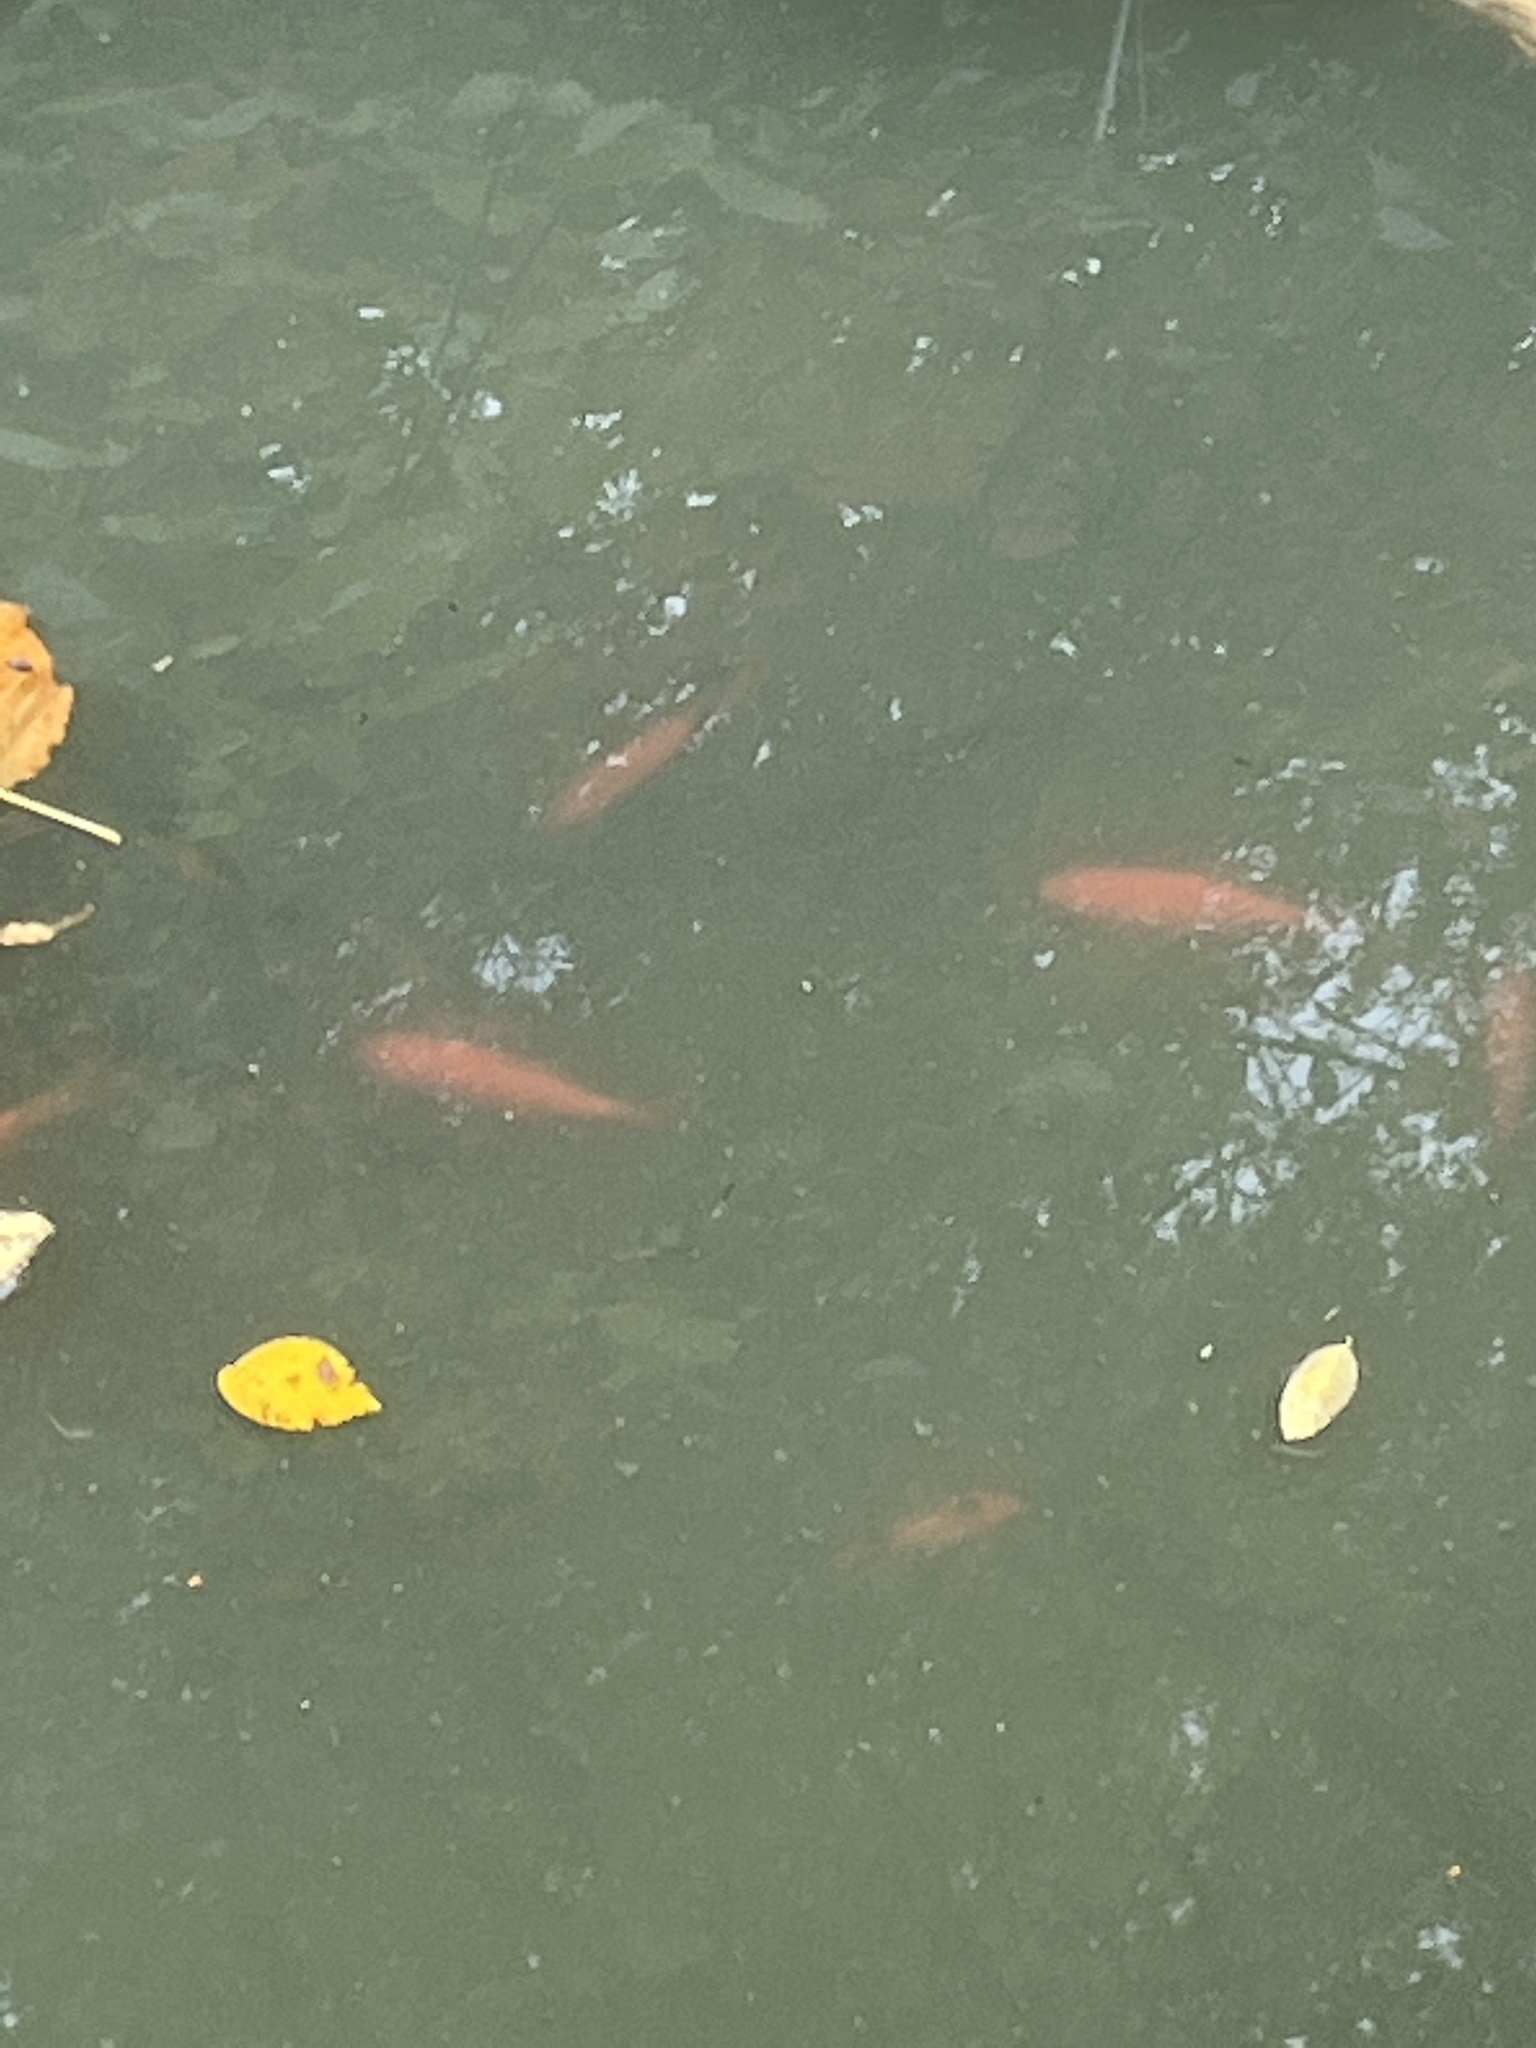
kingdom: Animalia
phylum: Chordata
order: Cypriniformes
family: Cyprinidae
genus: Carassius
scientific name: Carassius auratus
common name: Goldfish
